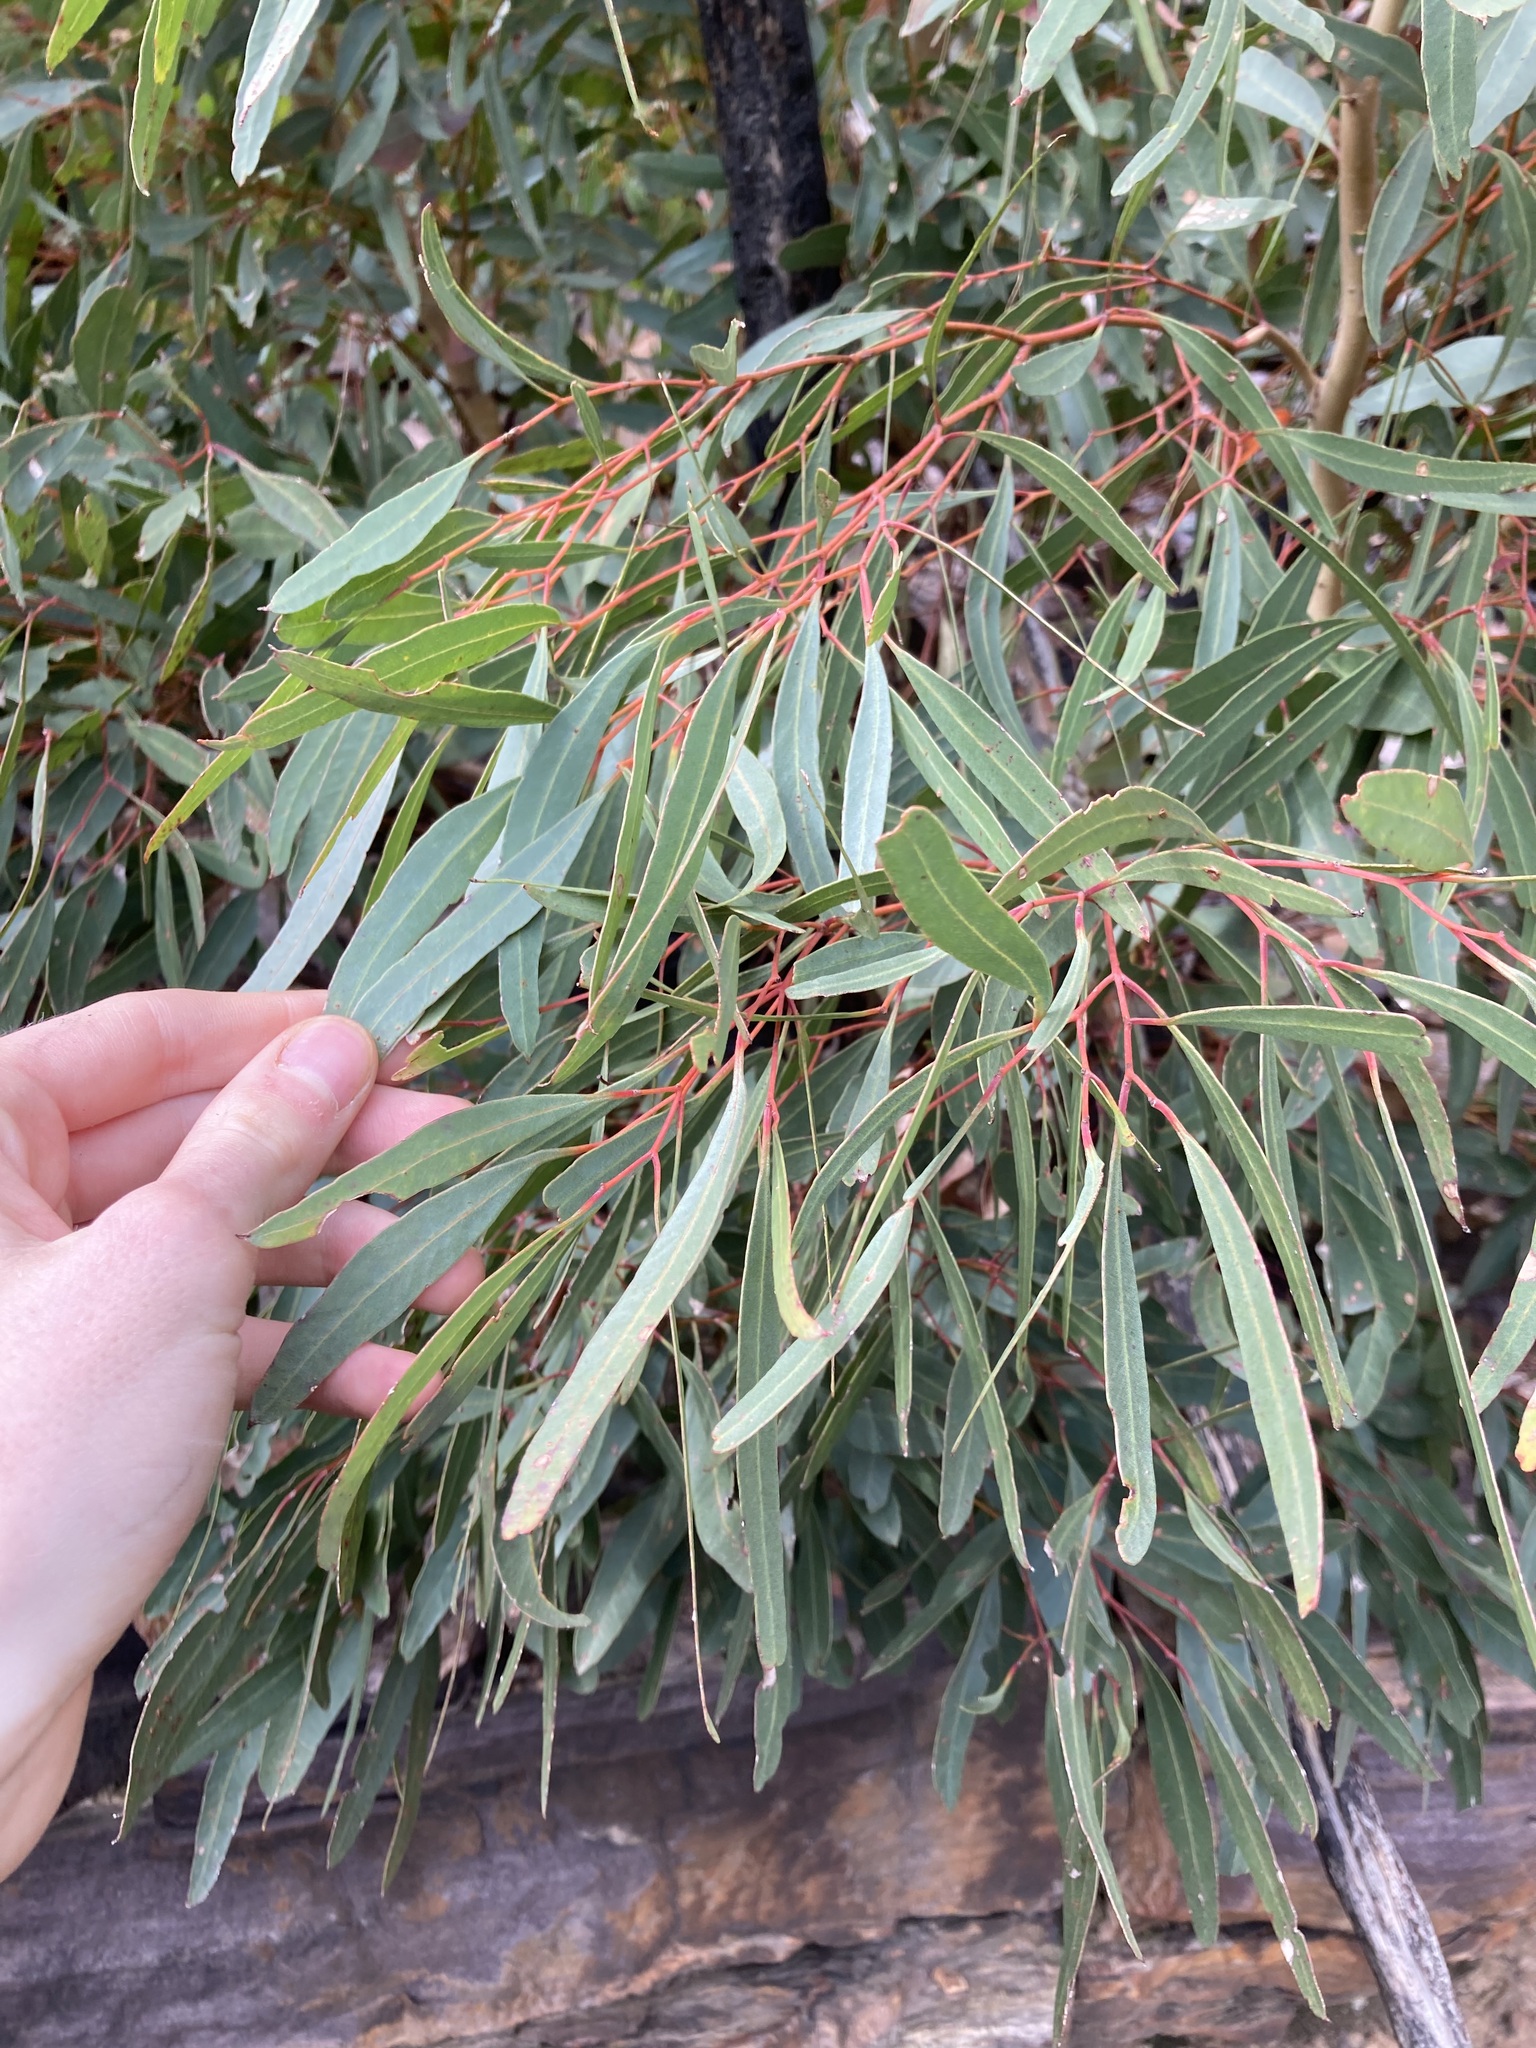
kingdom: Plantae
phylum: Tracheophyta
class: Magnoliopsida
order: Myrtales
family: Myrtaceae
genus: Eucalyptus
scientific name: Eucalyptus talyuberlup
